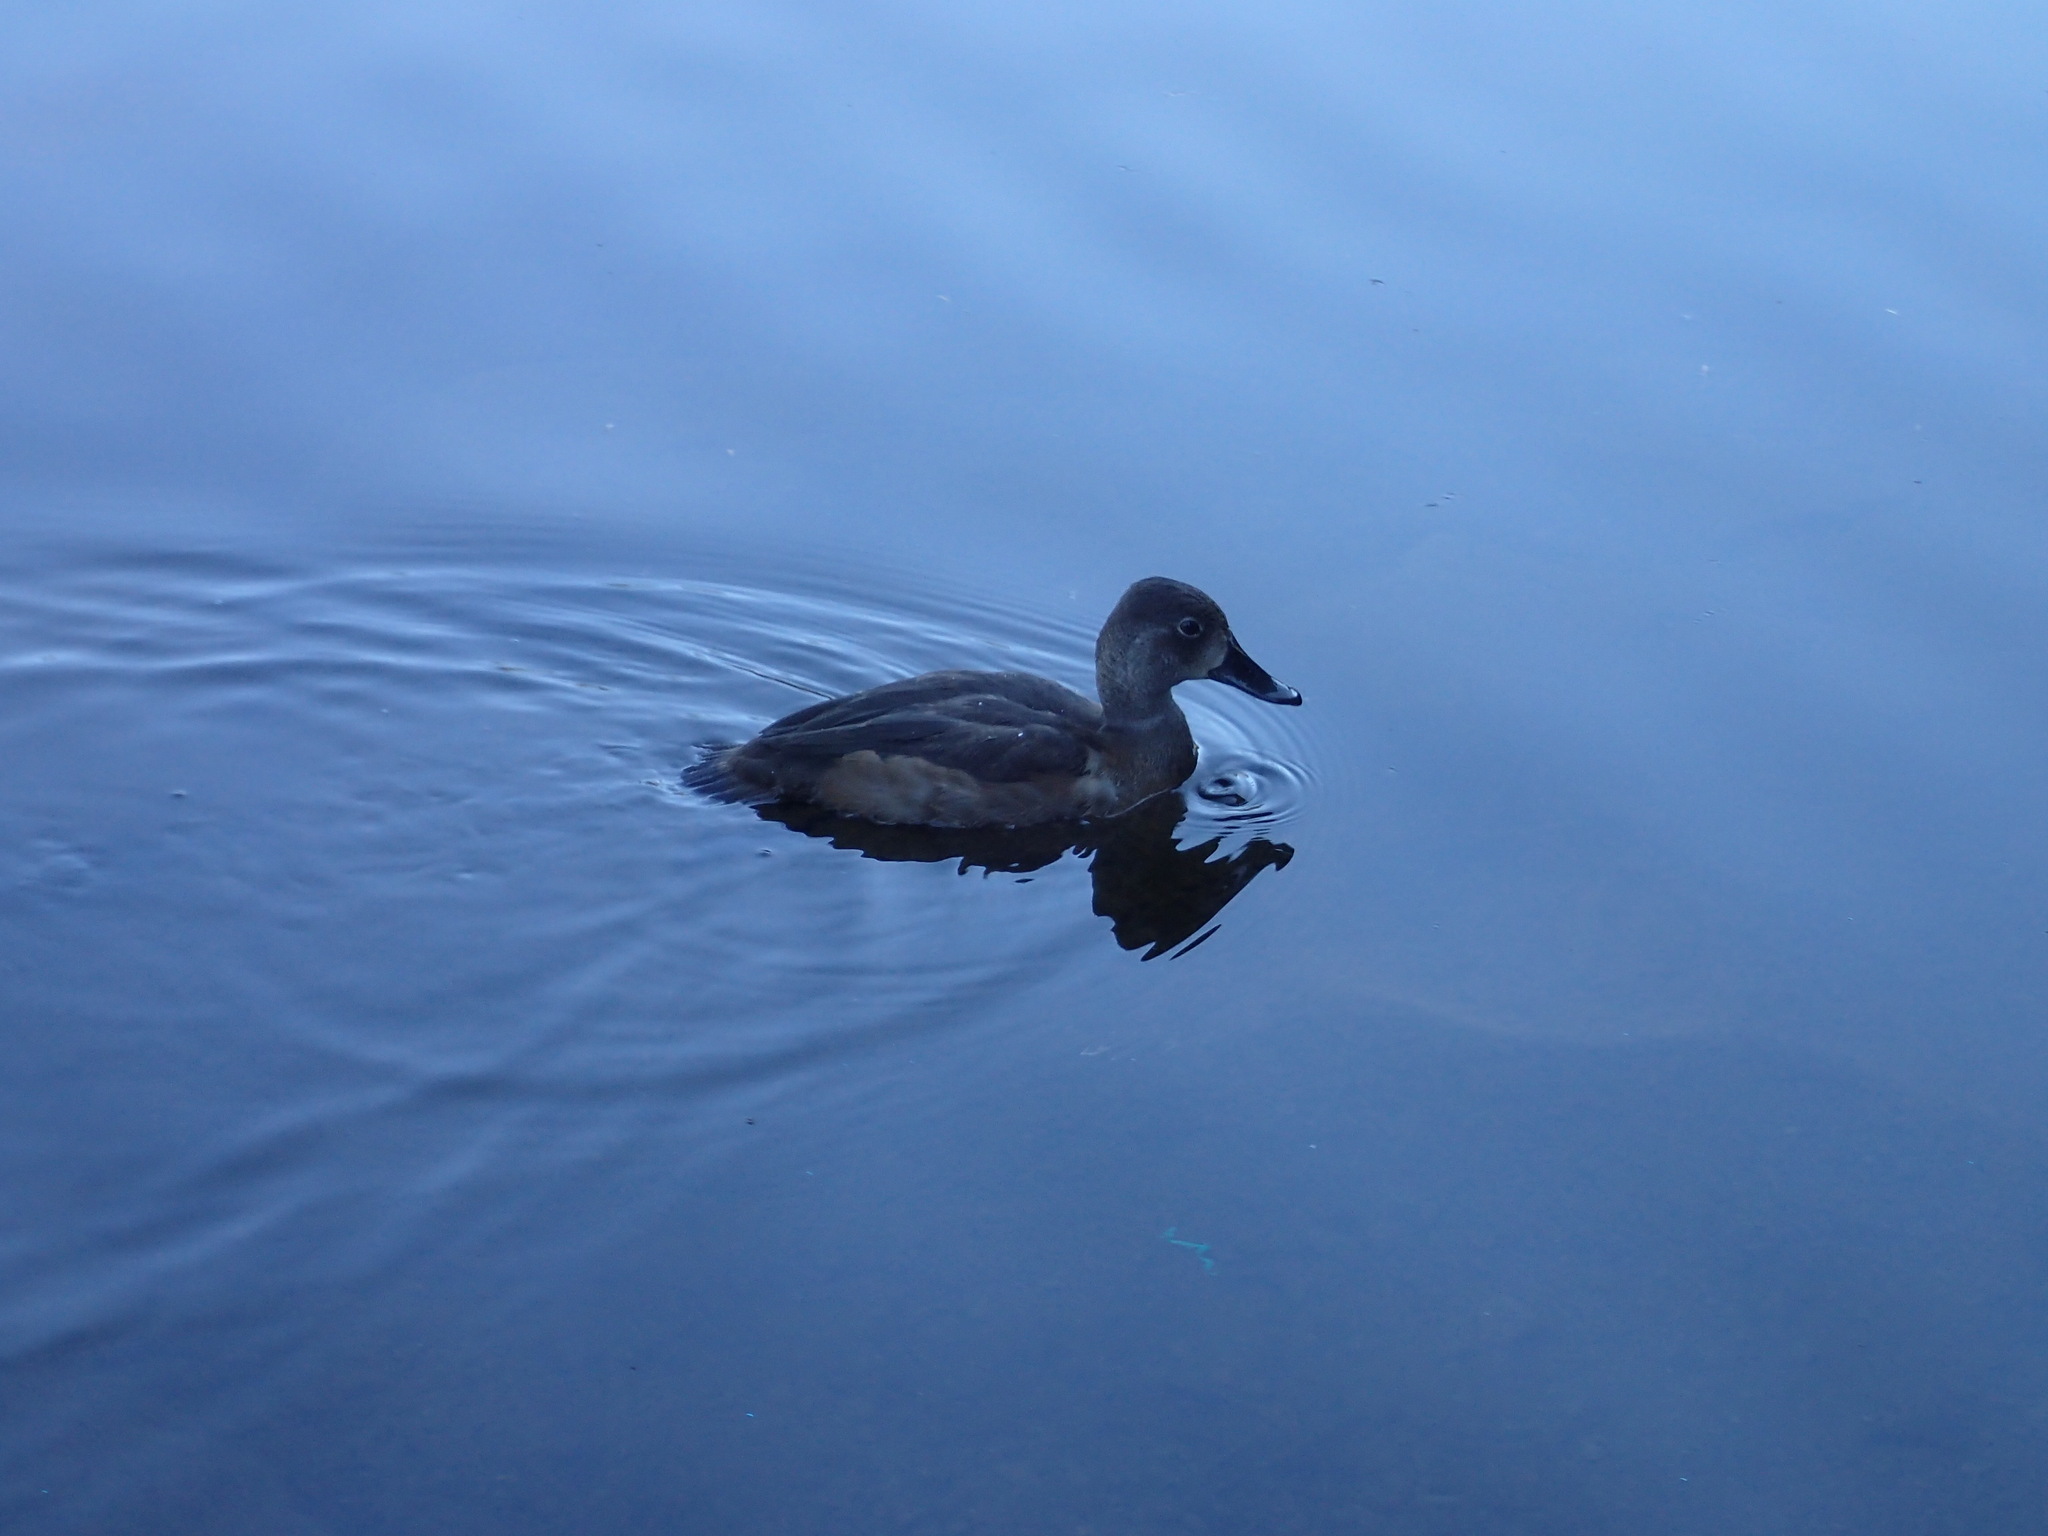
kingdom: Animalia
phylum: Chordata
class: Aves
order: Anseriformes
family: Anatidae
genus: Aythya
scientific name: Aythya collaris
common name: Ring-necked duck
